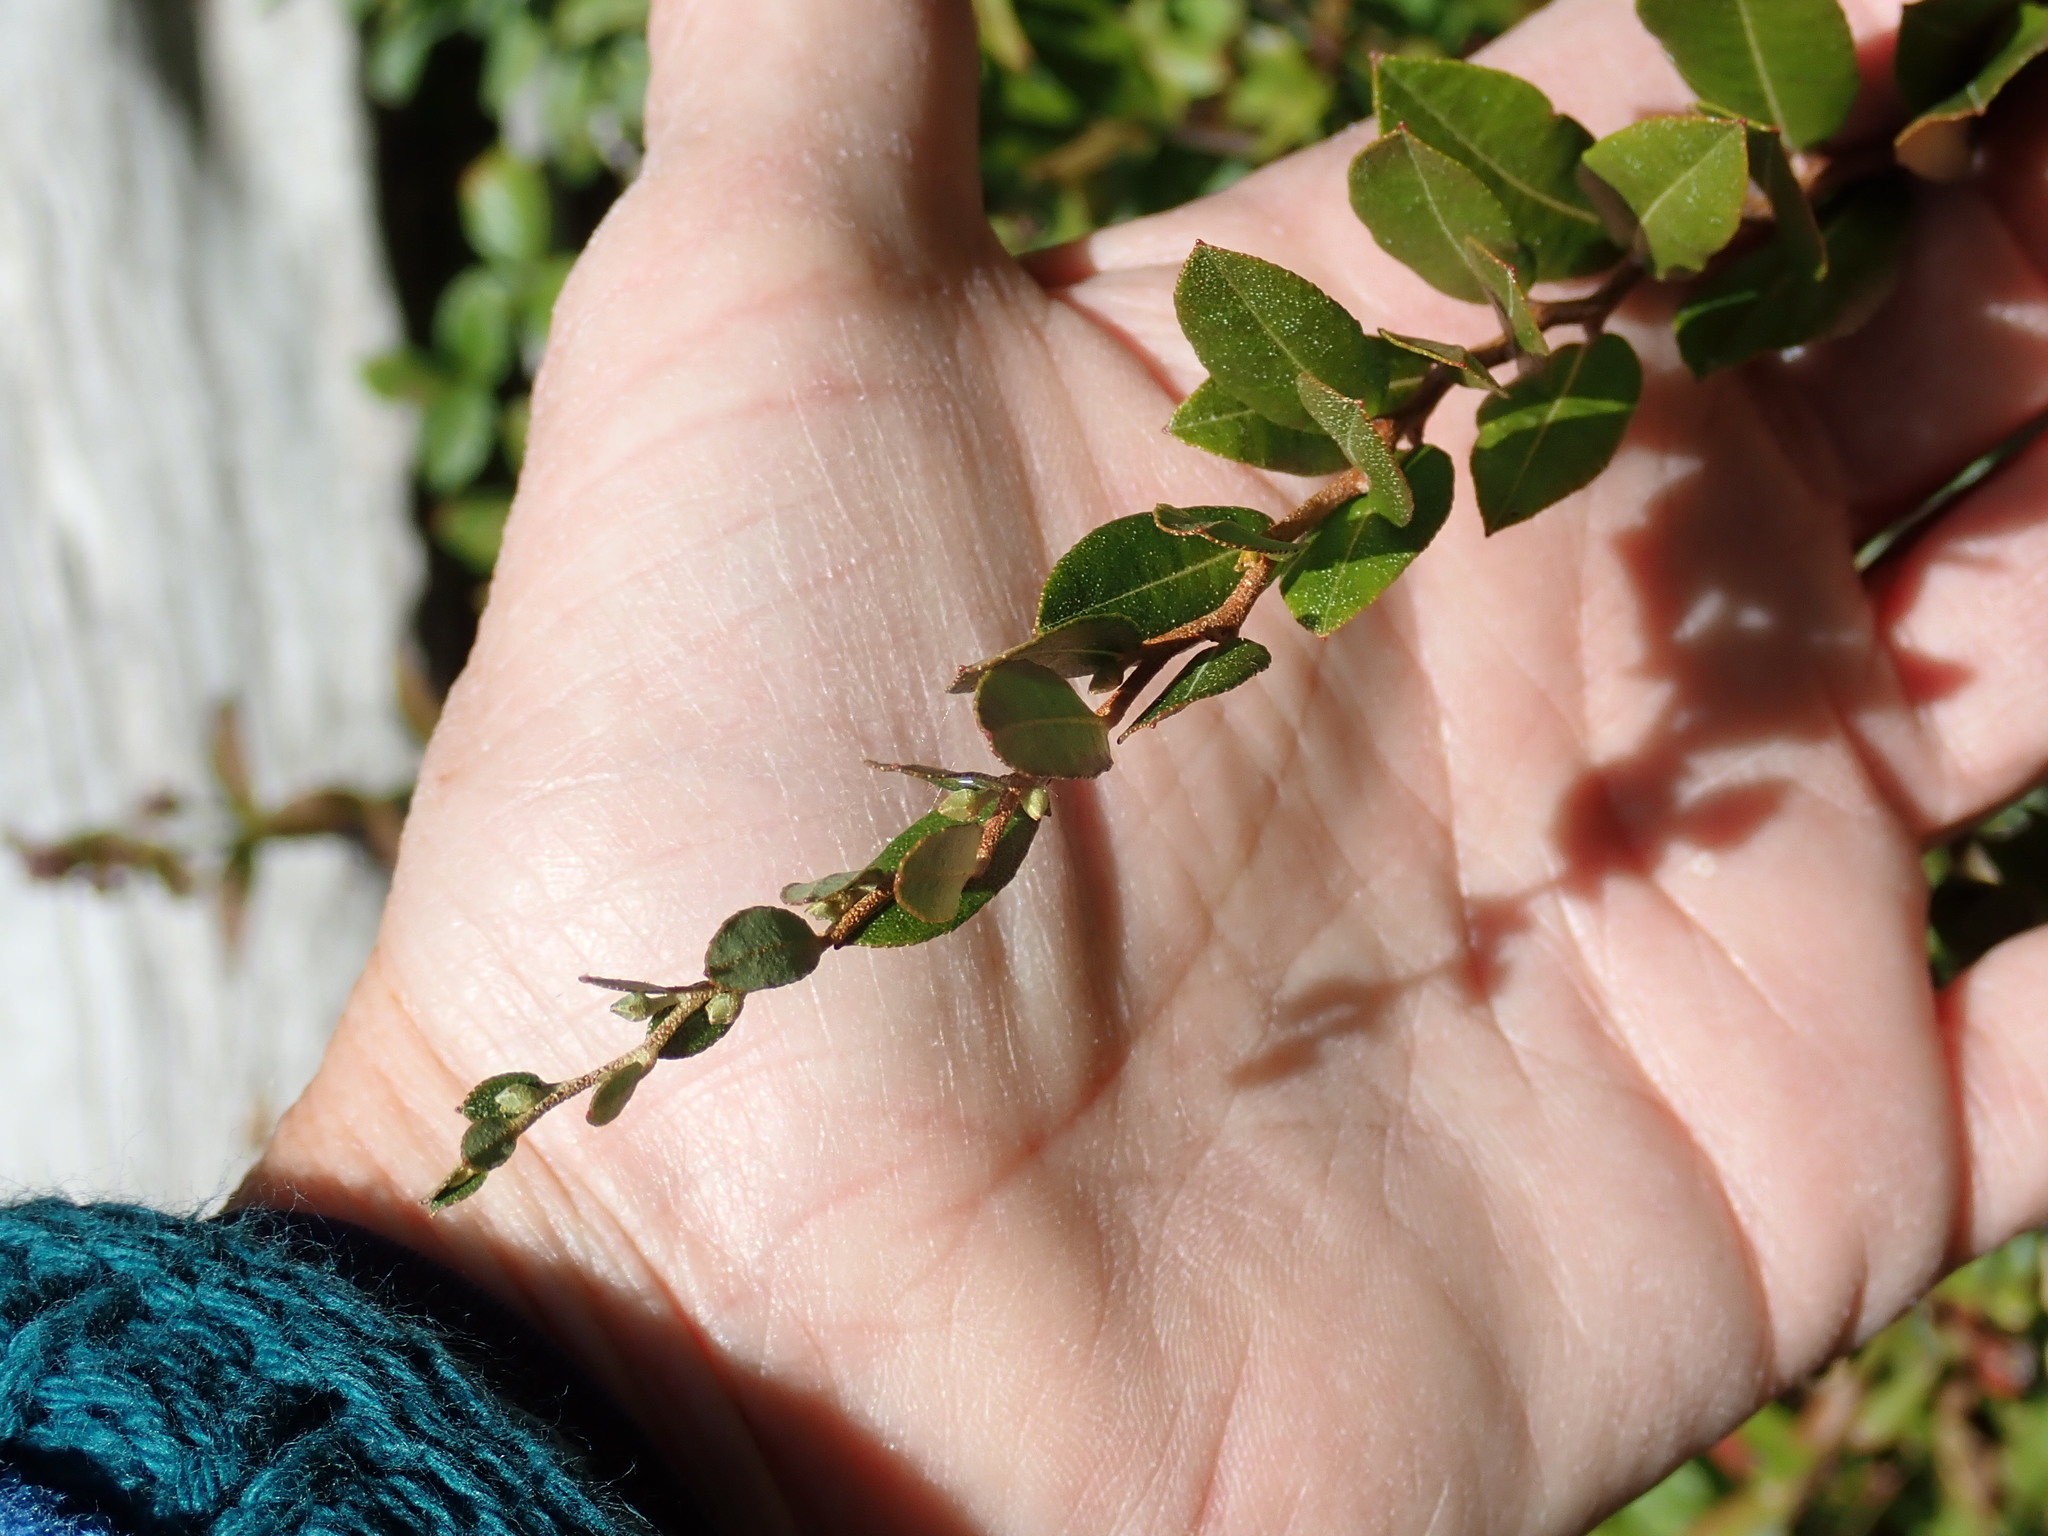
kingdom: Plantae
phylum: Tracheophyta
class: Magnoliopsida
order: Ericales
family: Ericaceae
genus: Chamaedaphne
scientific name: Chamaedaphne calyculata
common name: Leatherleaf
